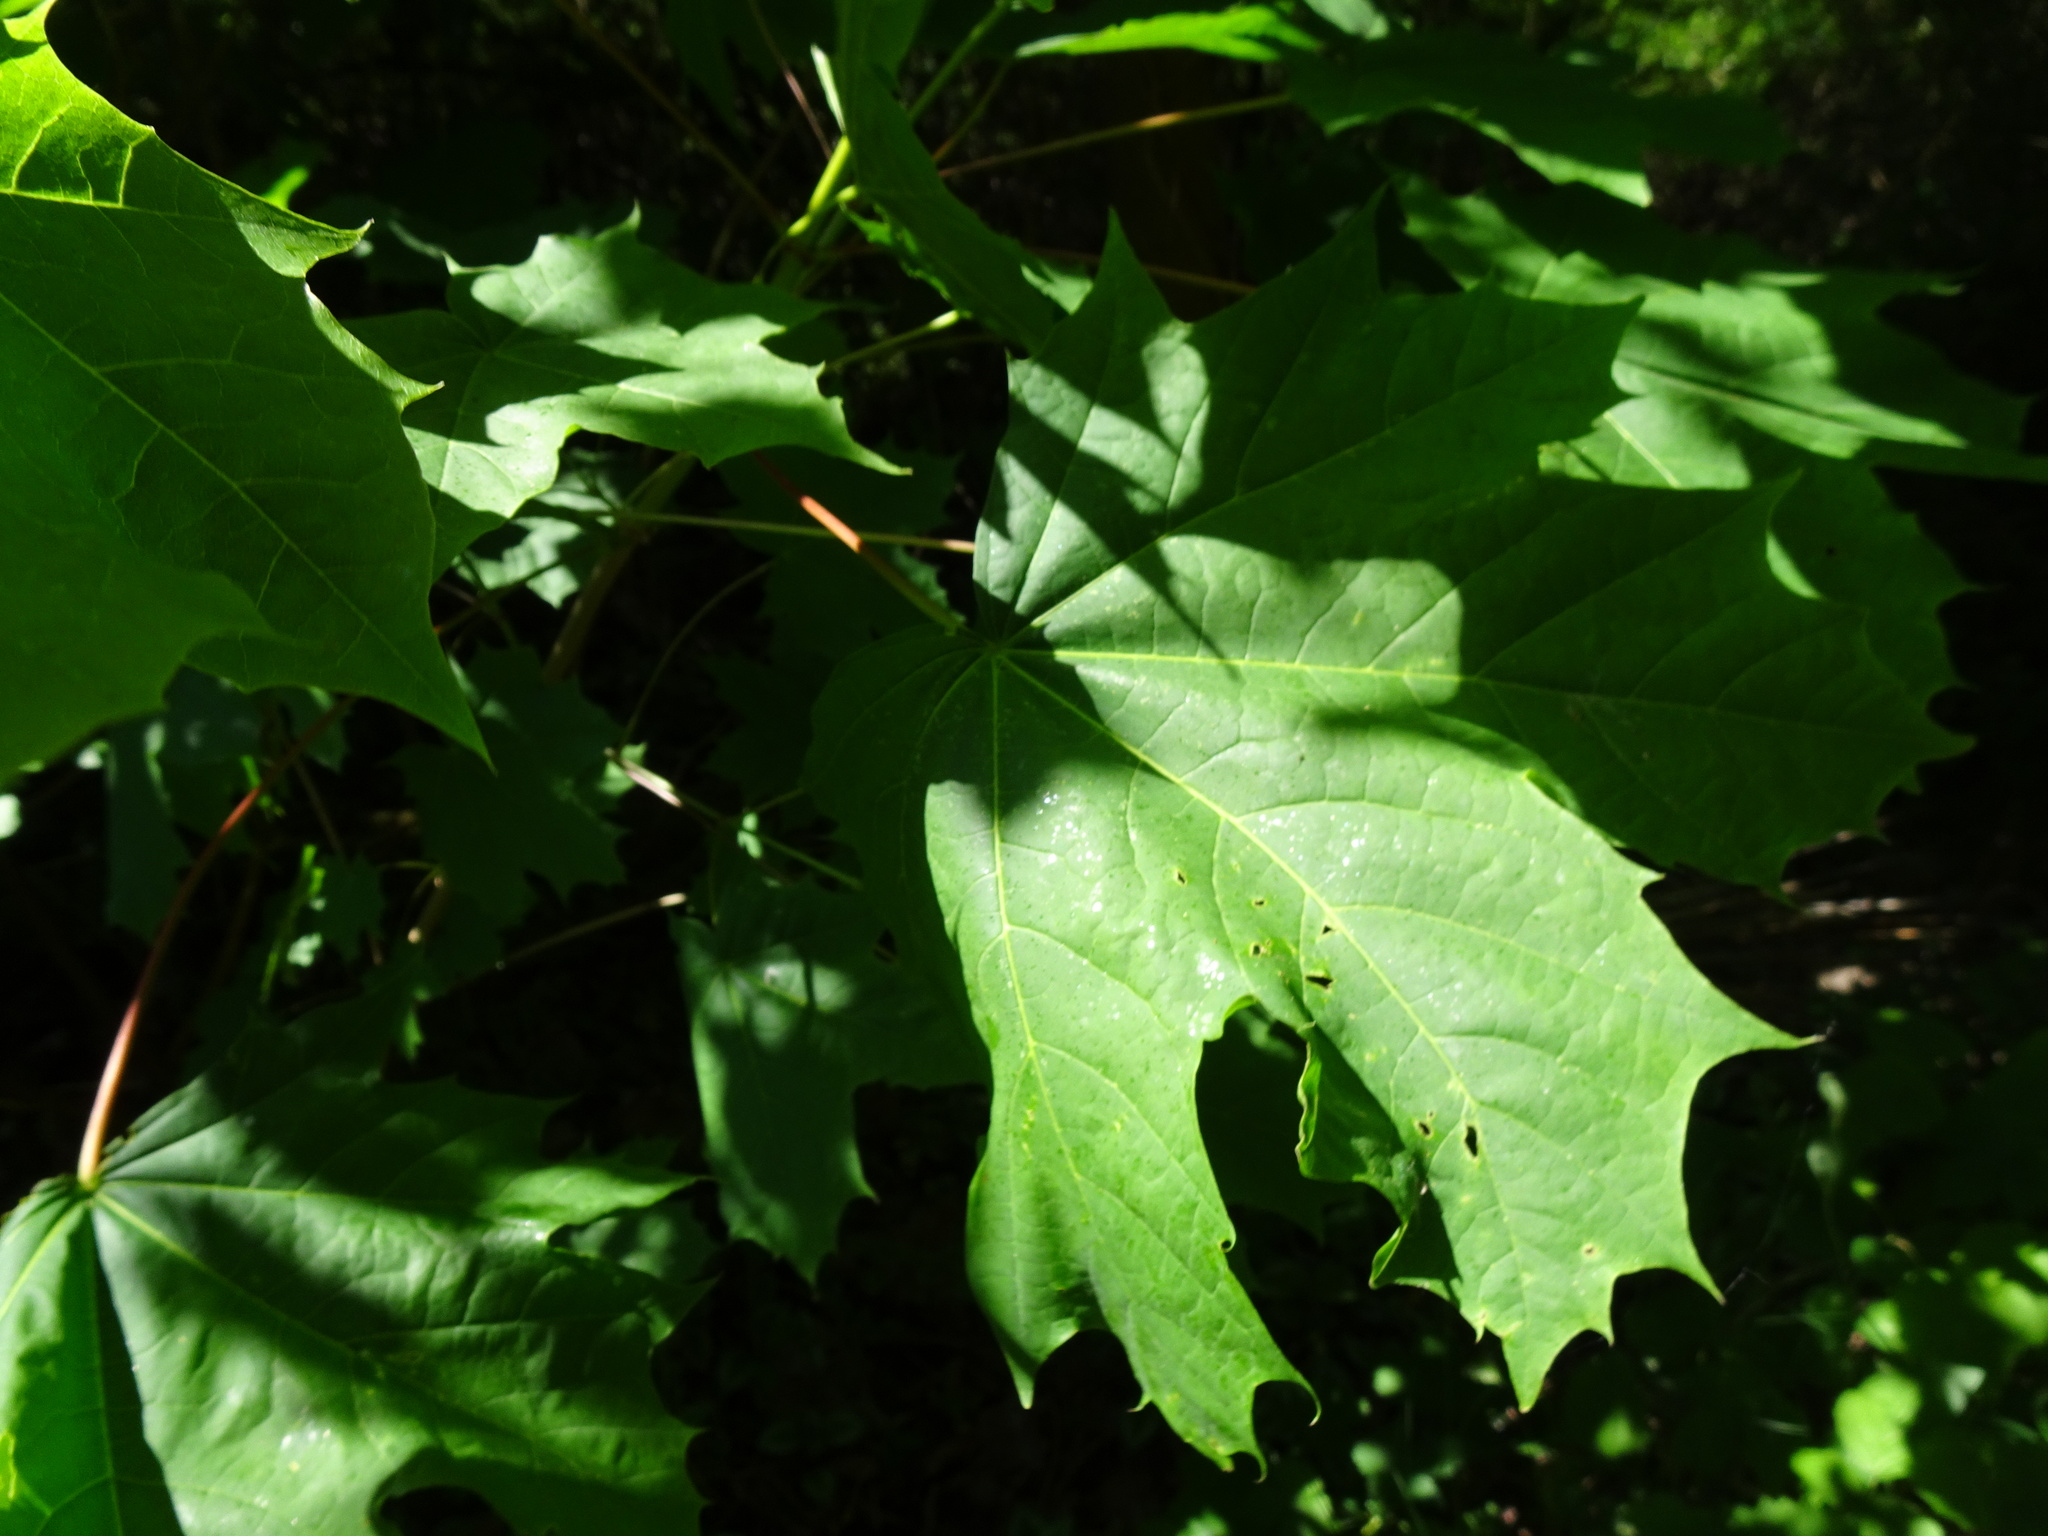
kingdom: Plantae
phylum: Tracheophyta
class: Magnoliopsida
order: Sapindales
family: Sapindaceae
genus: Acer
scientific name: Acer platanoides
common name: Norway maple
